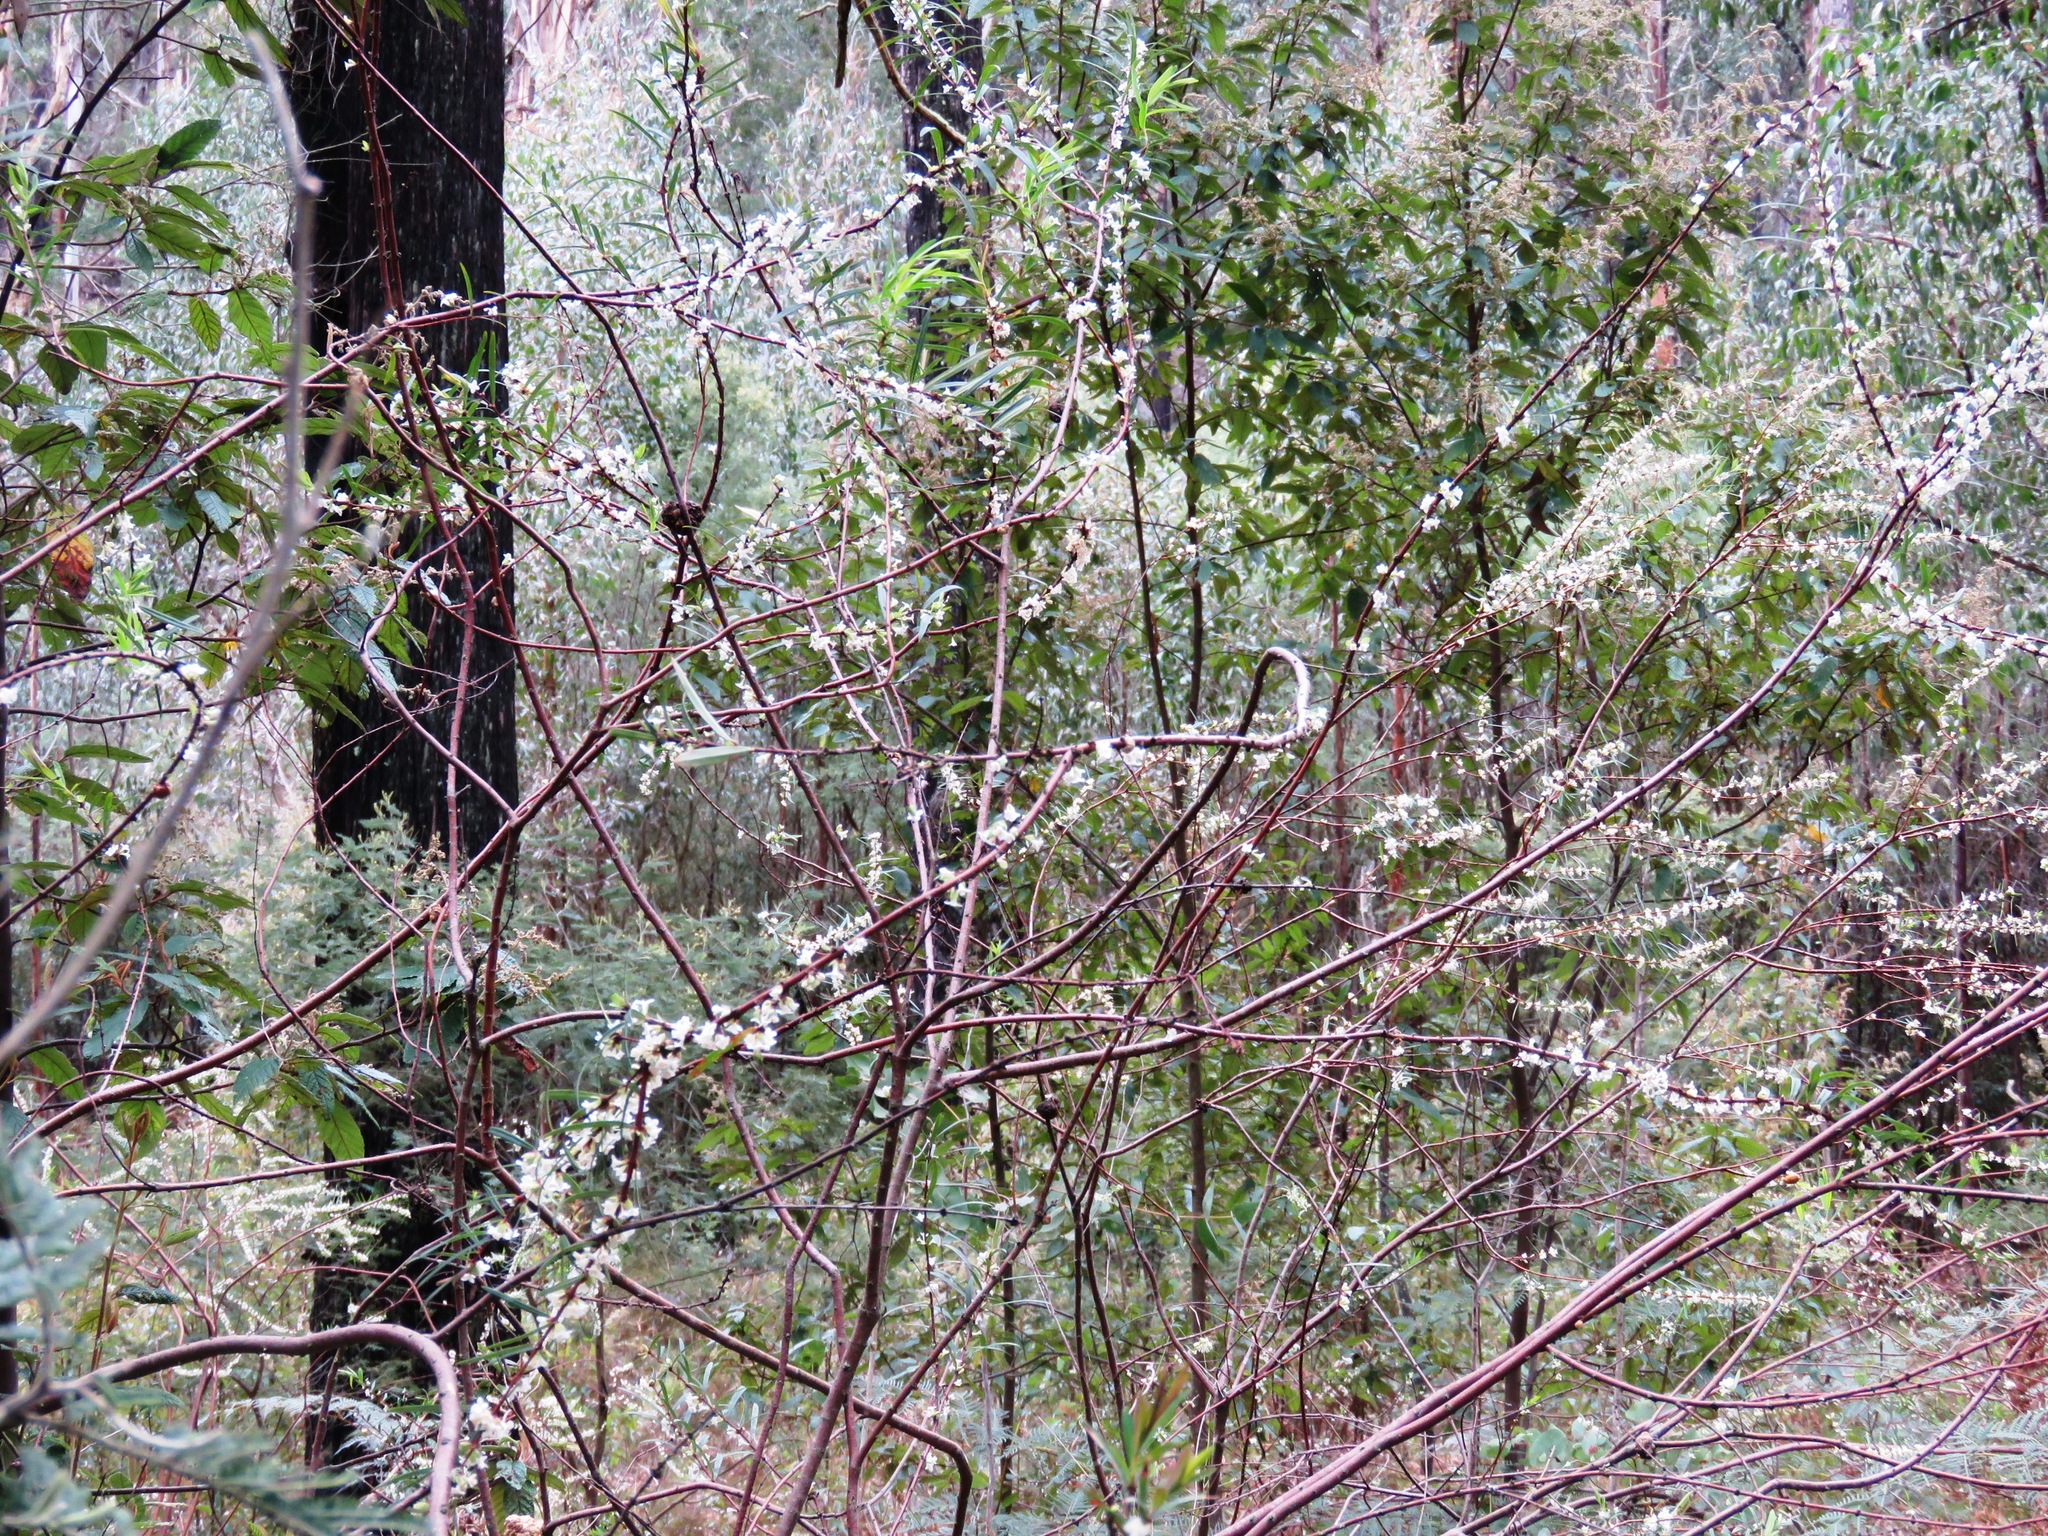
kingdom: Plantae
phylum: Tracheophyta
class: Magnoliopsida
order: Malvales
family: Thymelaeaceae
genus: Pimelea
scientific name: Pimelea axiflora
